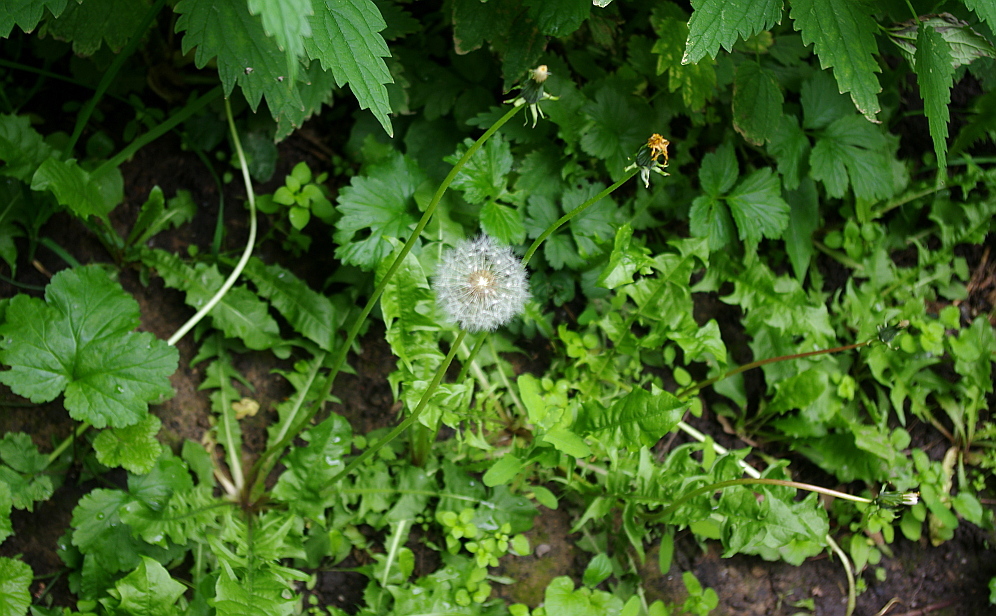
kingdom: Plantae
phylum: Tracheophyta
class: Magnoliopsida
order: Asterales
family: Asteraceae
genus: Taraxacum
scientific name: Taraxacum officinale
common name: Common dandelion
